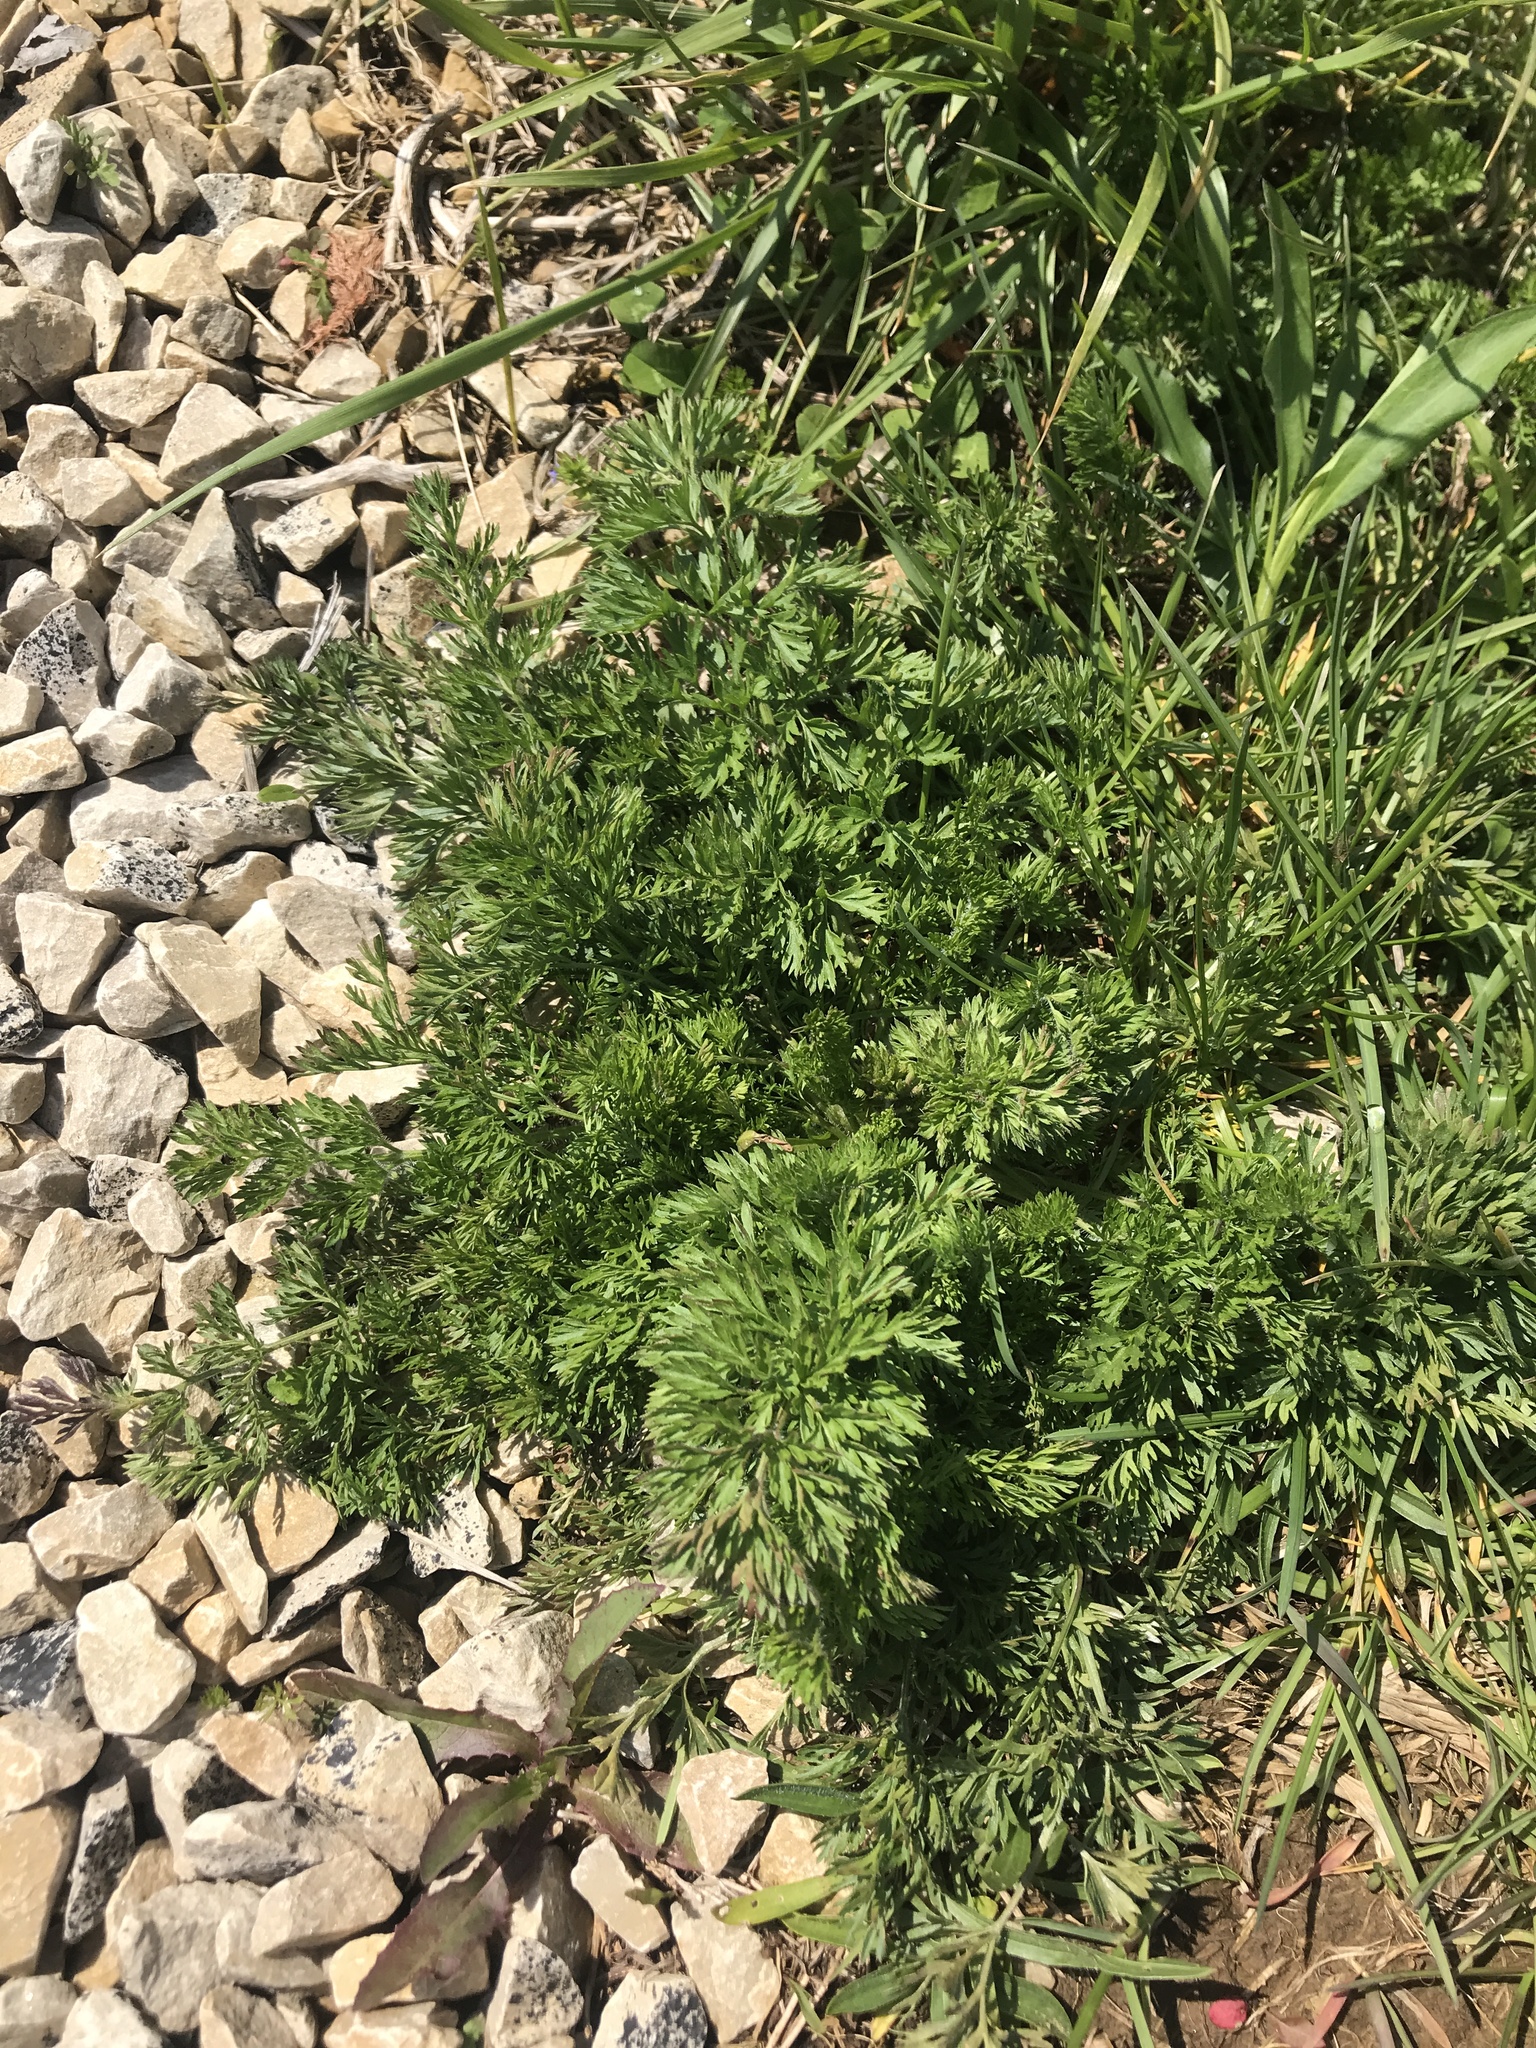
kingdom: Plantae
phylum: Tracheophyta
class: Magnoliopsida
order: Apiales
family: Apiaceae
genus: Daucus
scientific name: Daucus carota
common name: Wild carrot
